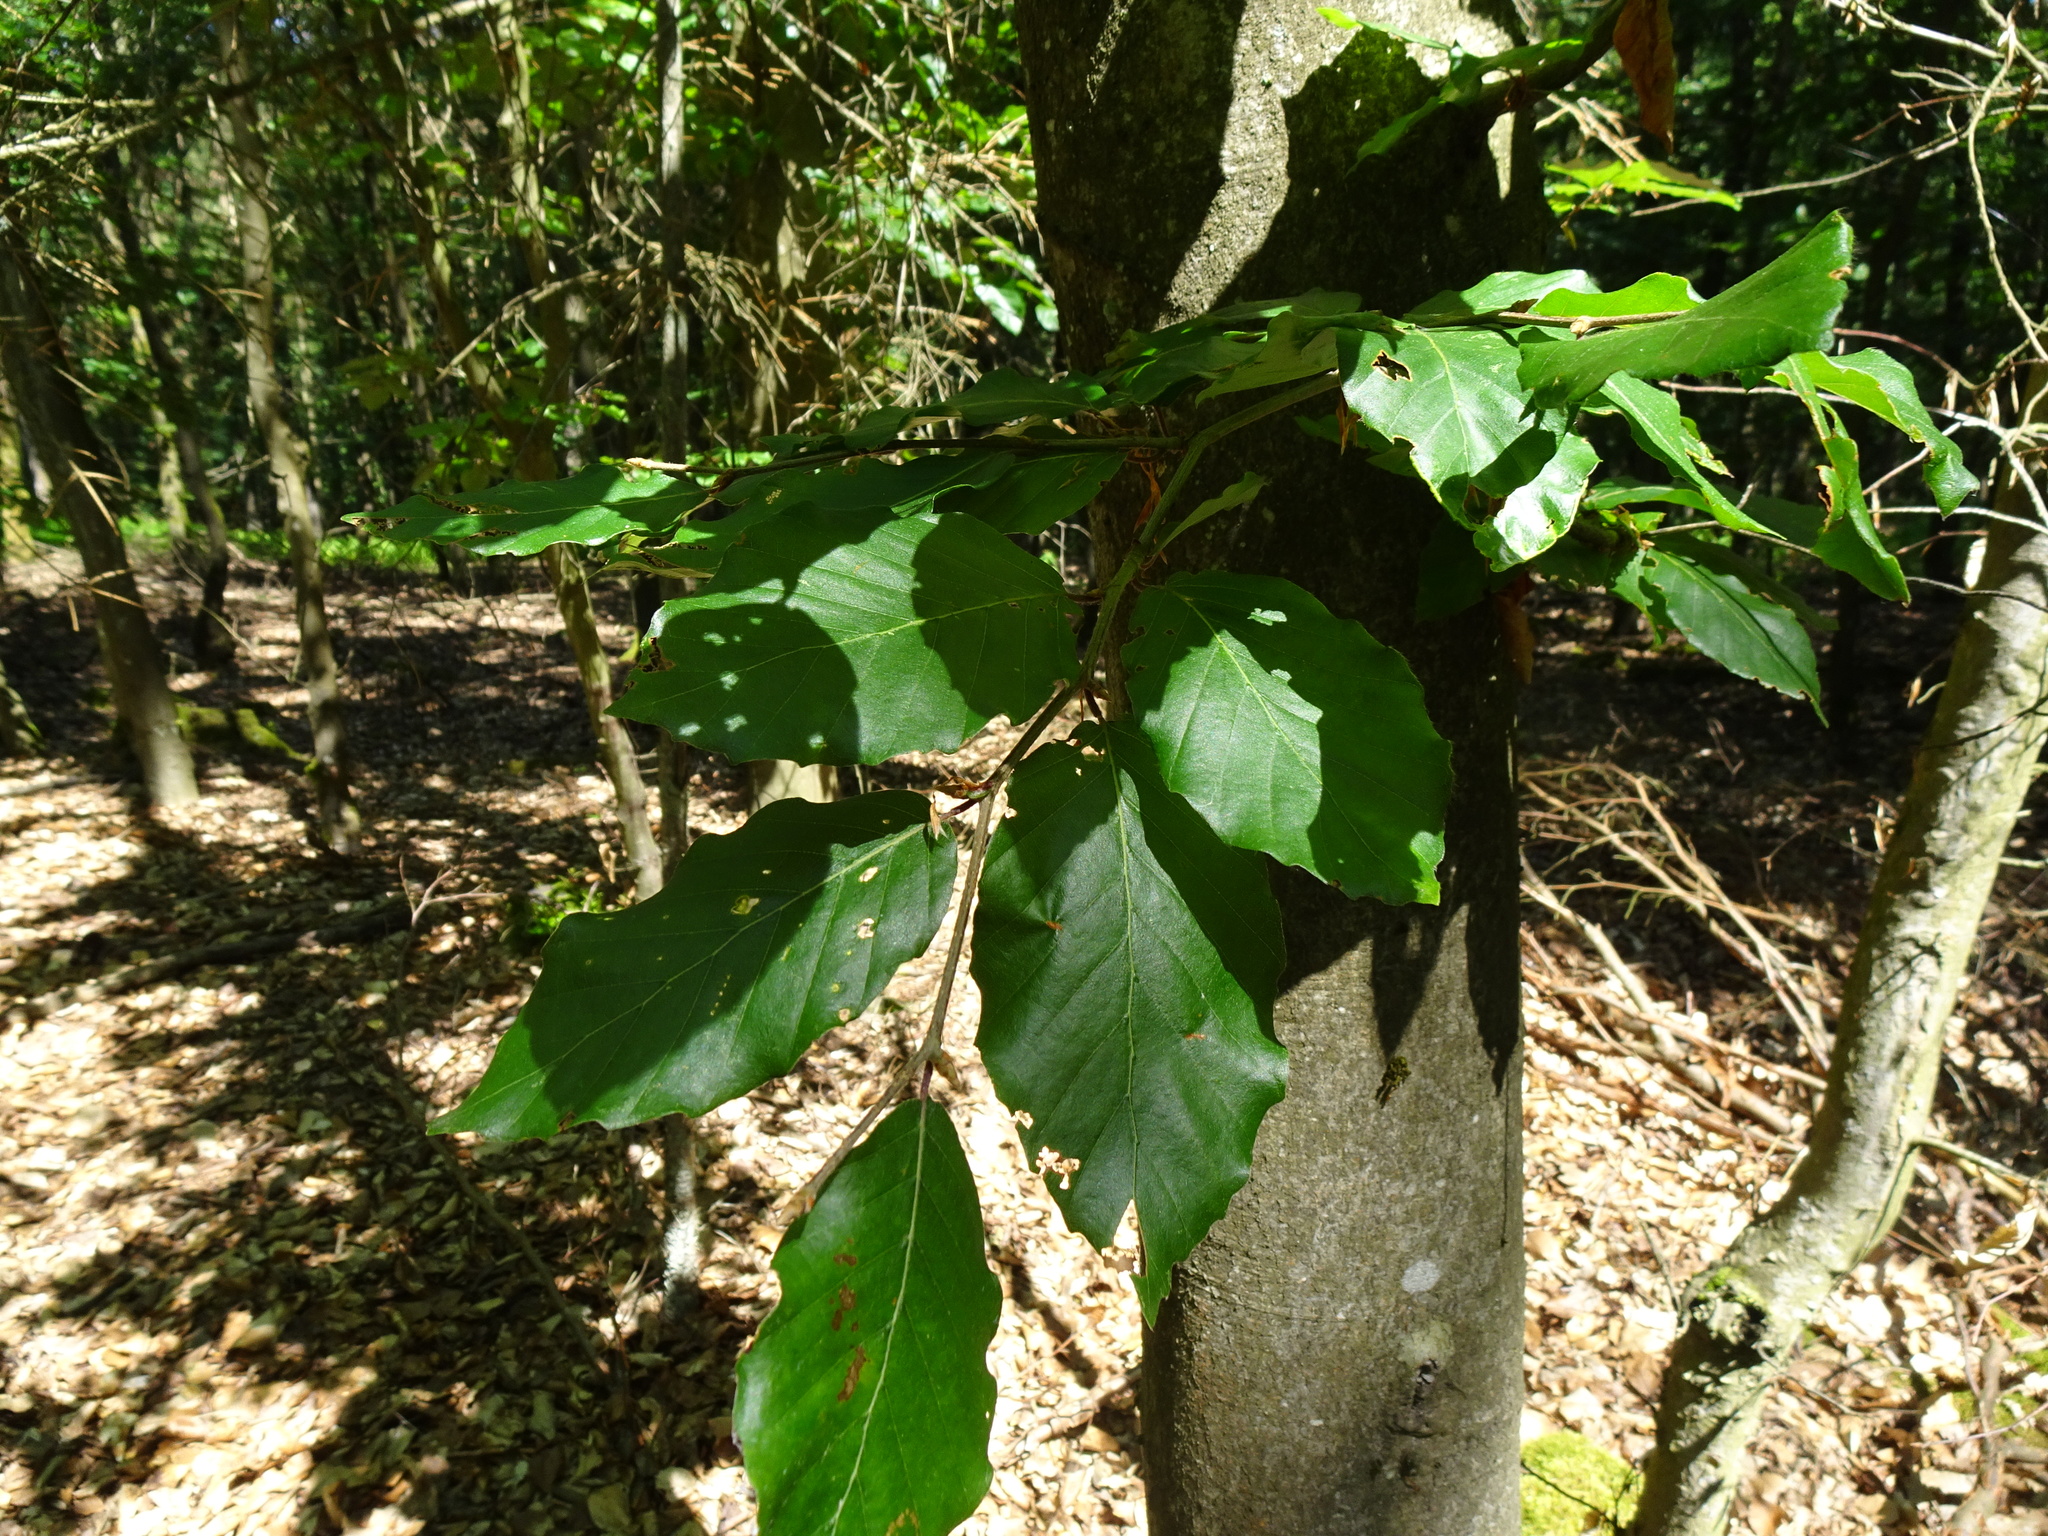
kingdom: Plantae
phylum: Tracheophyta
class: Magnoliopsida
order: Fagales
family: Fagaceae
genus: Fagus
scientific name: Fagus sylvatica
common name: Beech
